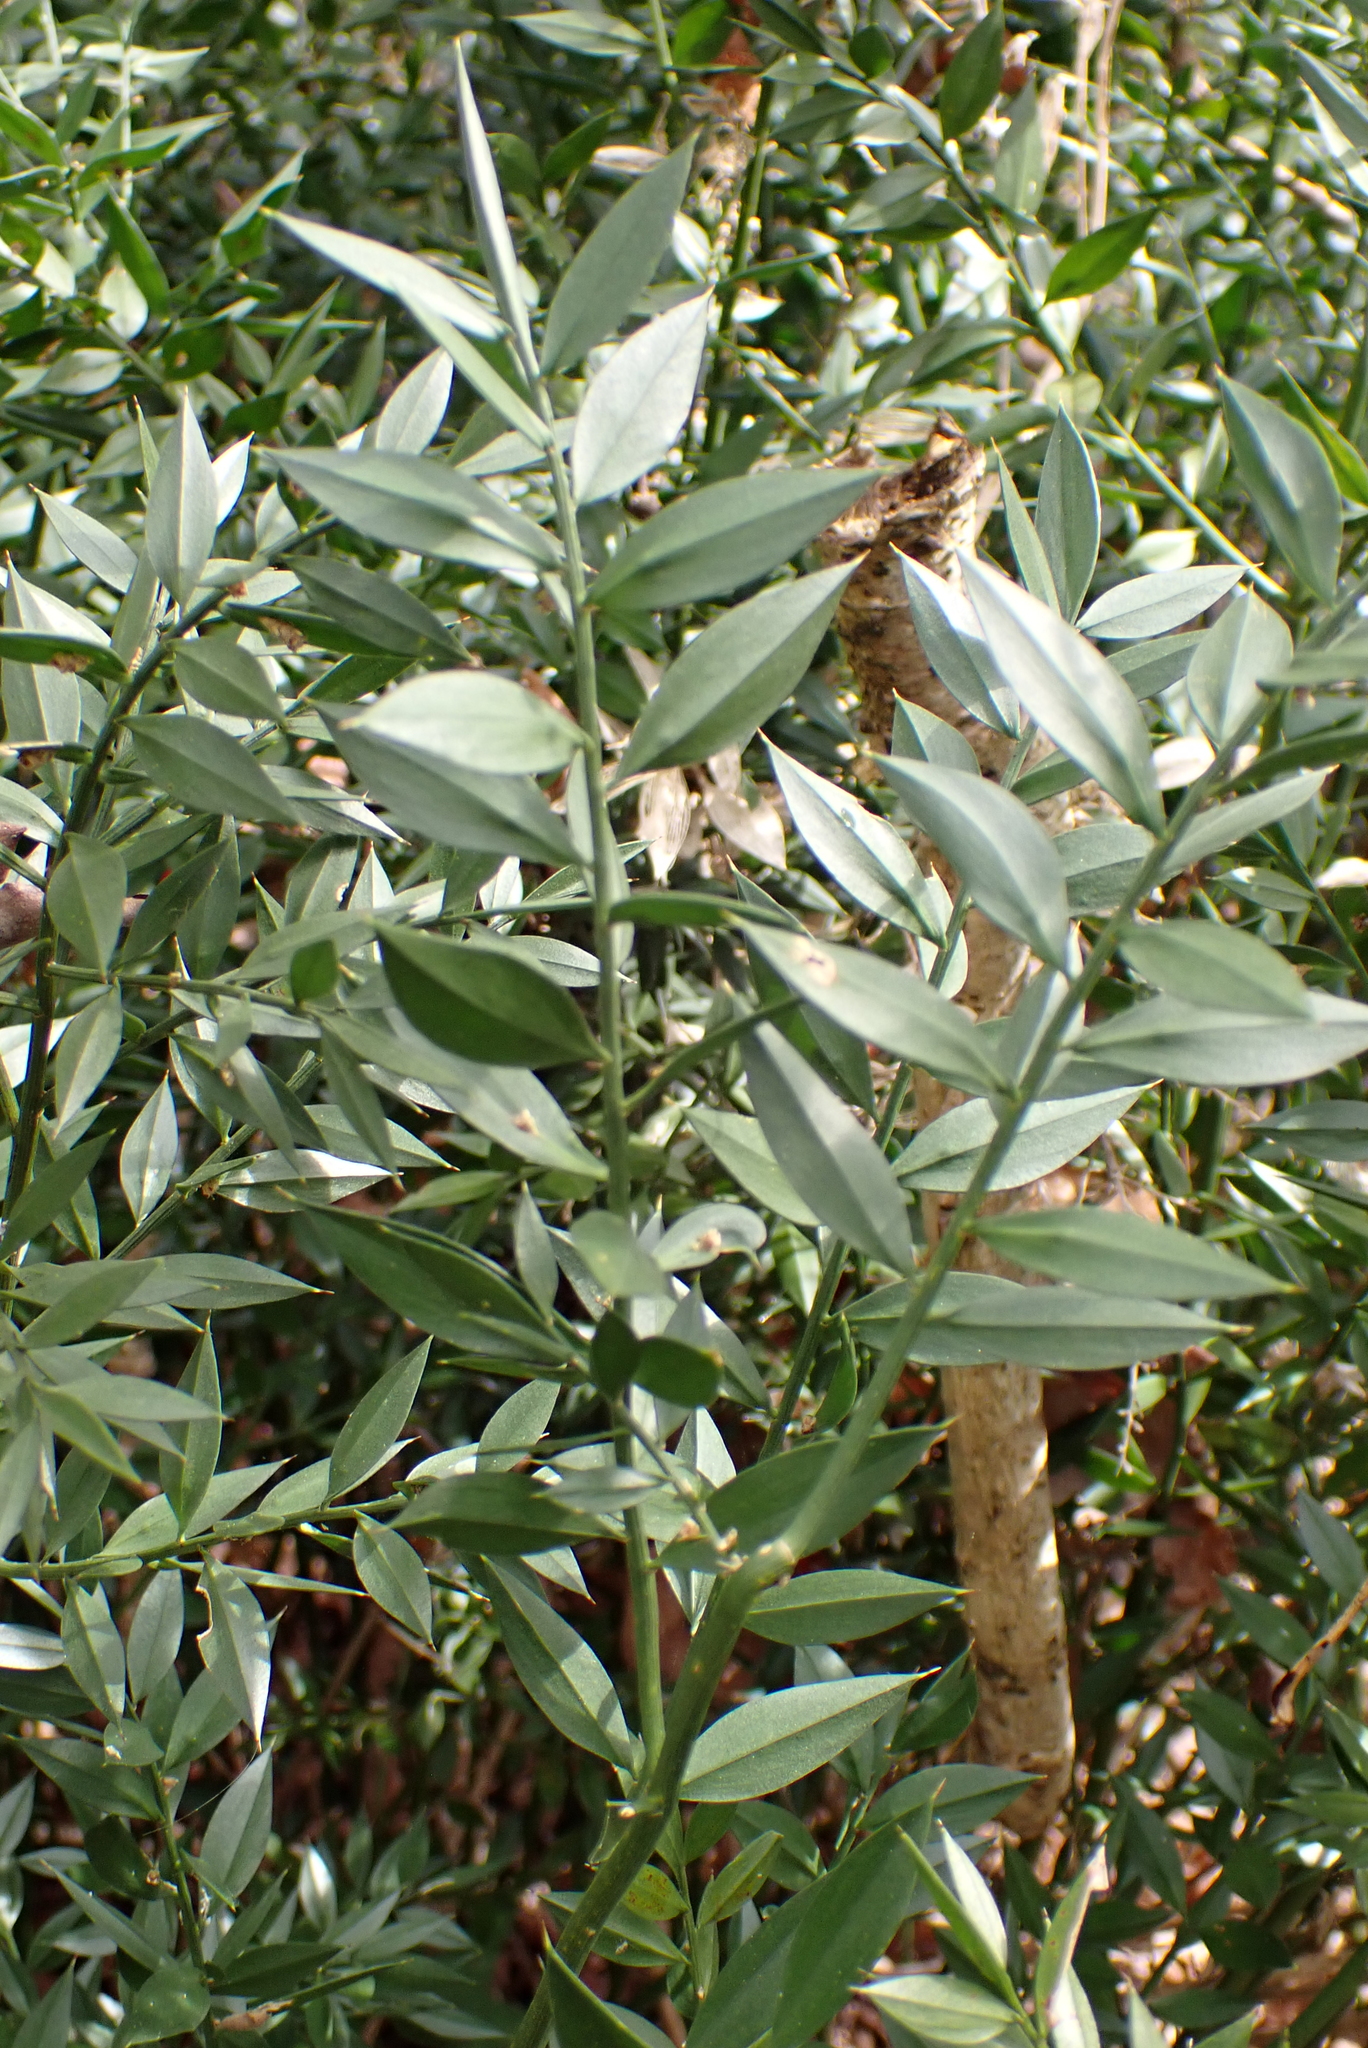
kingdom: Plantae
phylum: Tracheophyta
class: Liliopsida
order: Asparagales
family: Asparagaceae
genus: Ruscus
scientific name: Ruscus aculeatus
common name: Butcher's-broom
